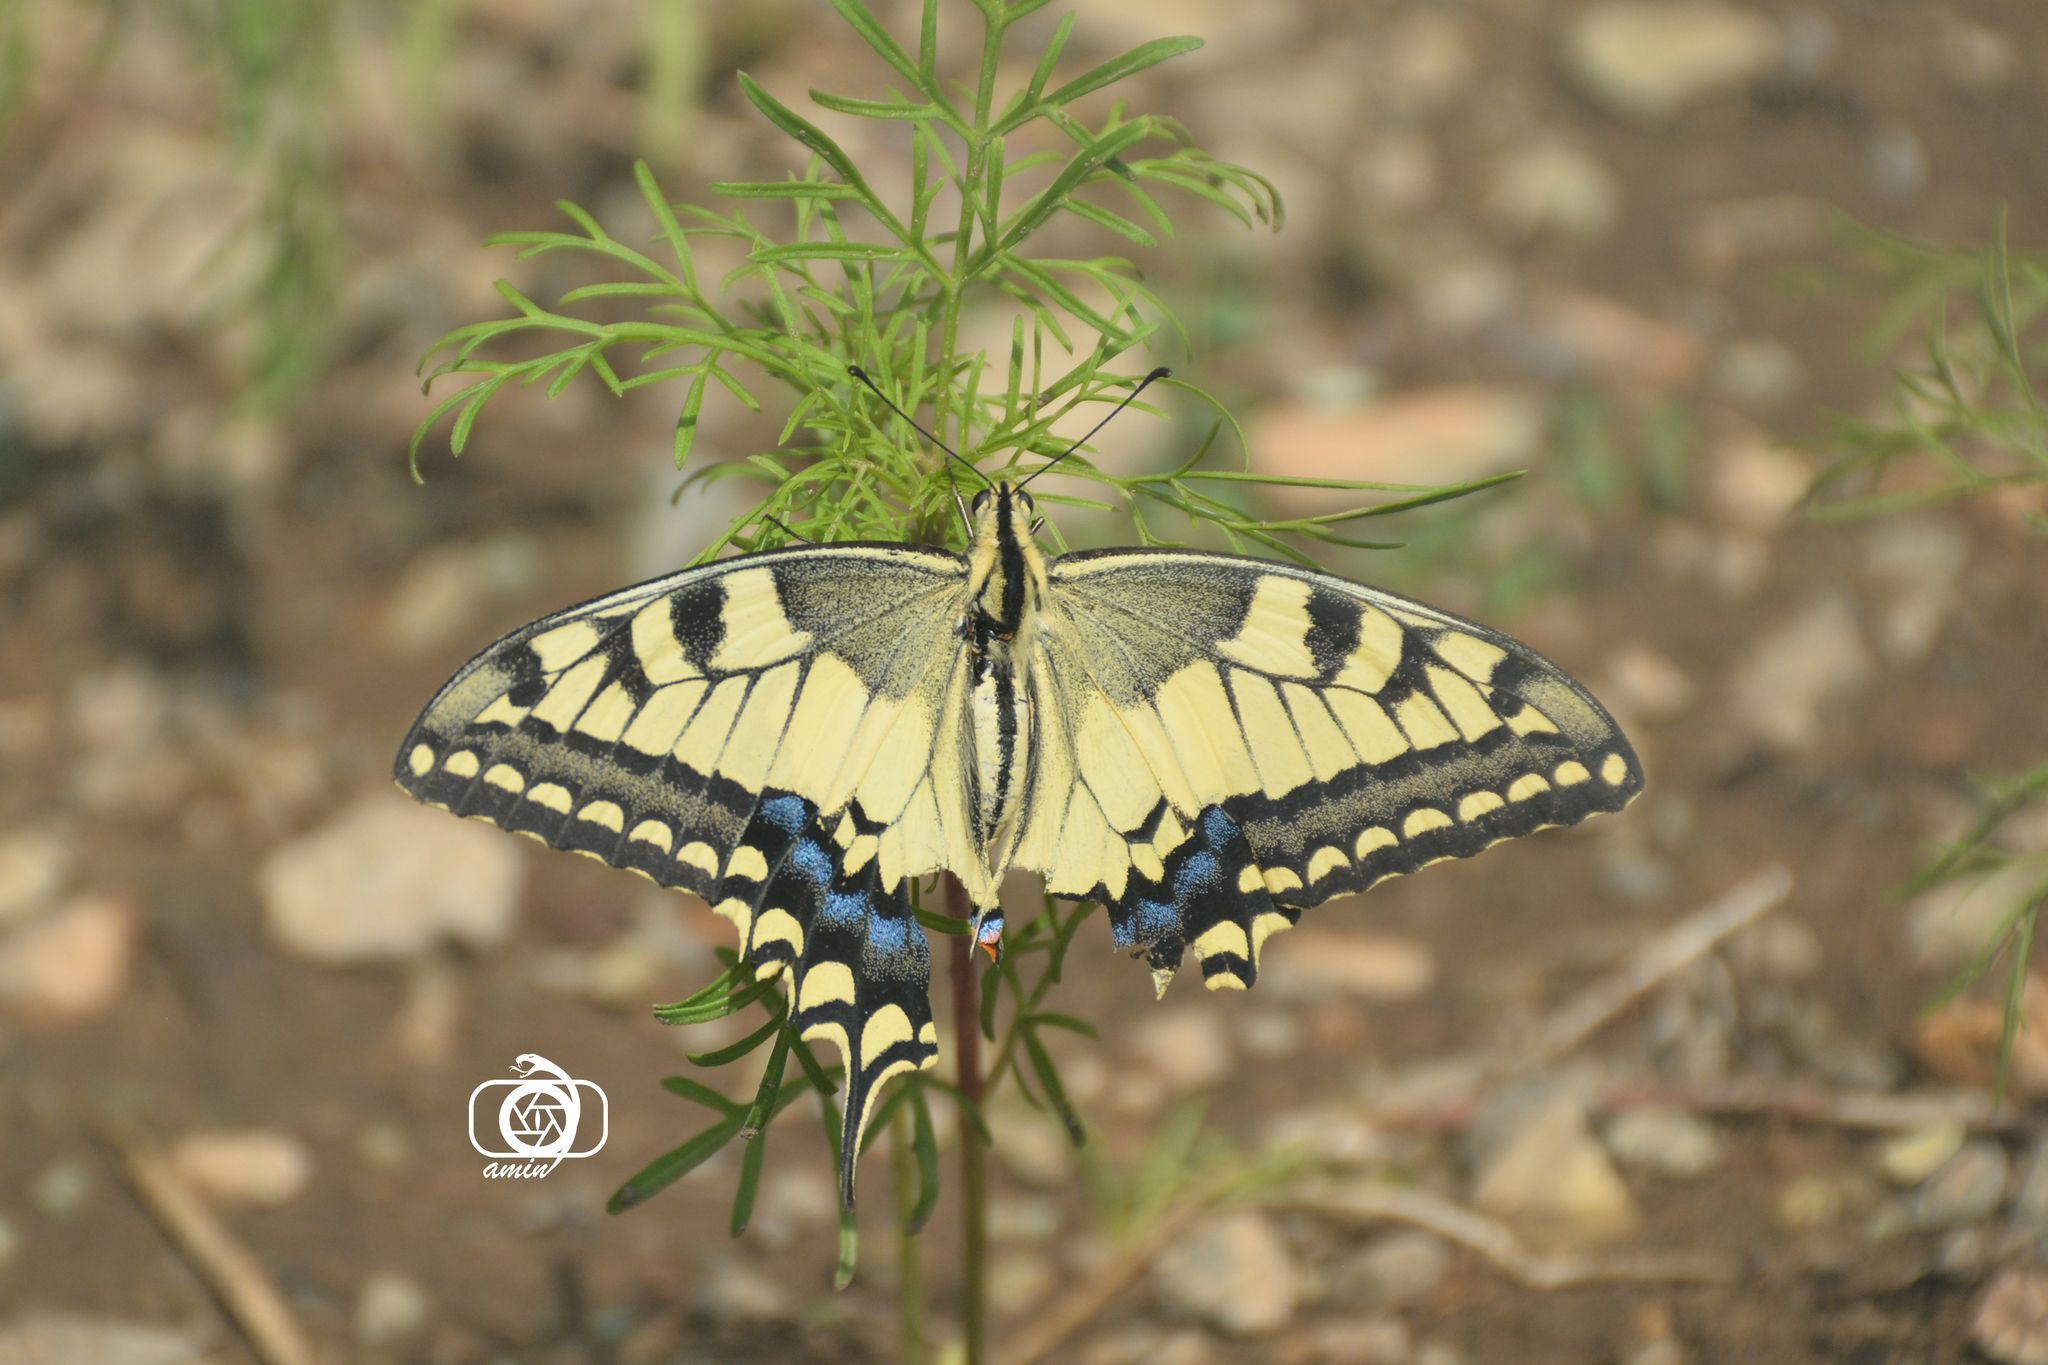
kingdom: Animalia
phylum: Arthropoda
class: Insecta
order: Lepidoptera
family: Papilionidae
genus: Papilio
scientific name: Papilio machaon
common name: Swallowtail
